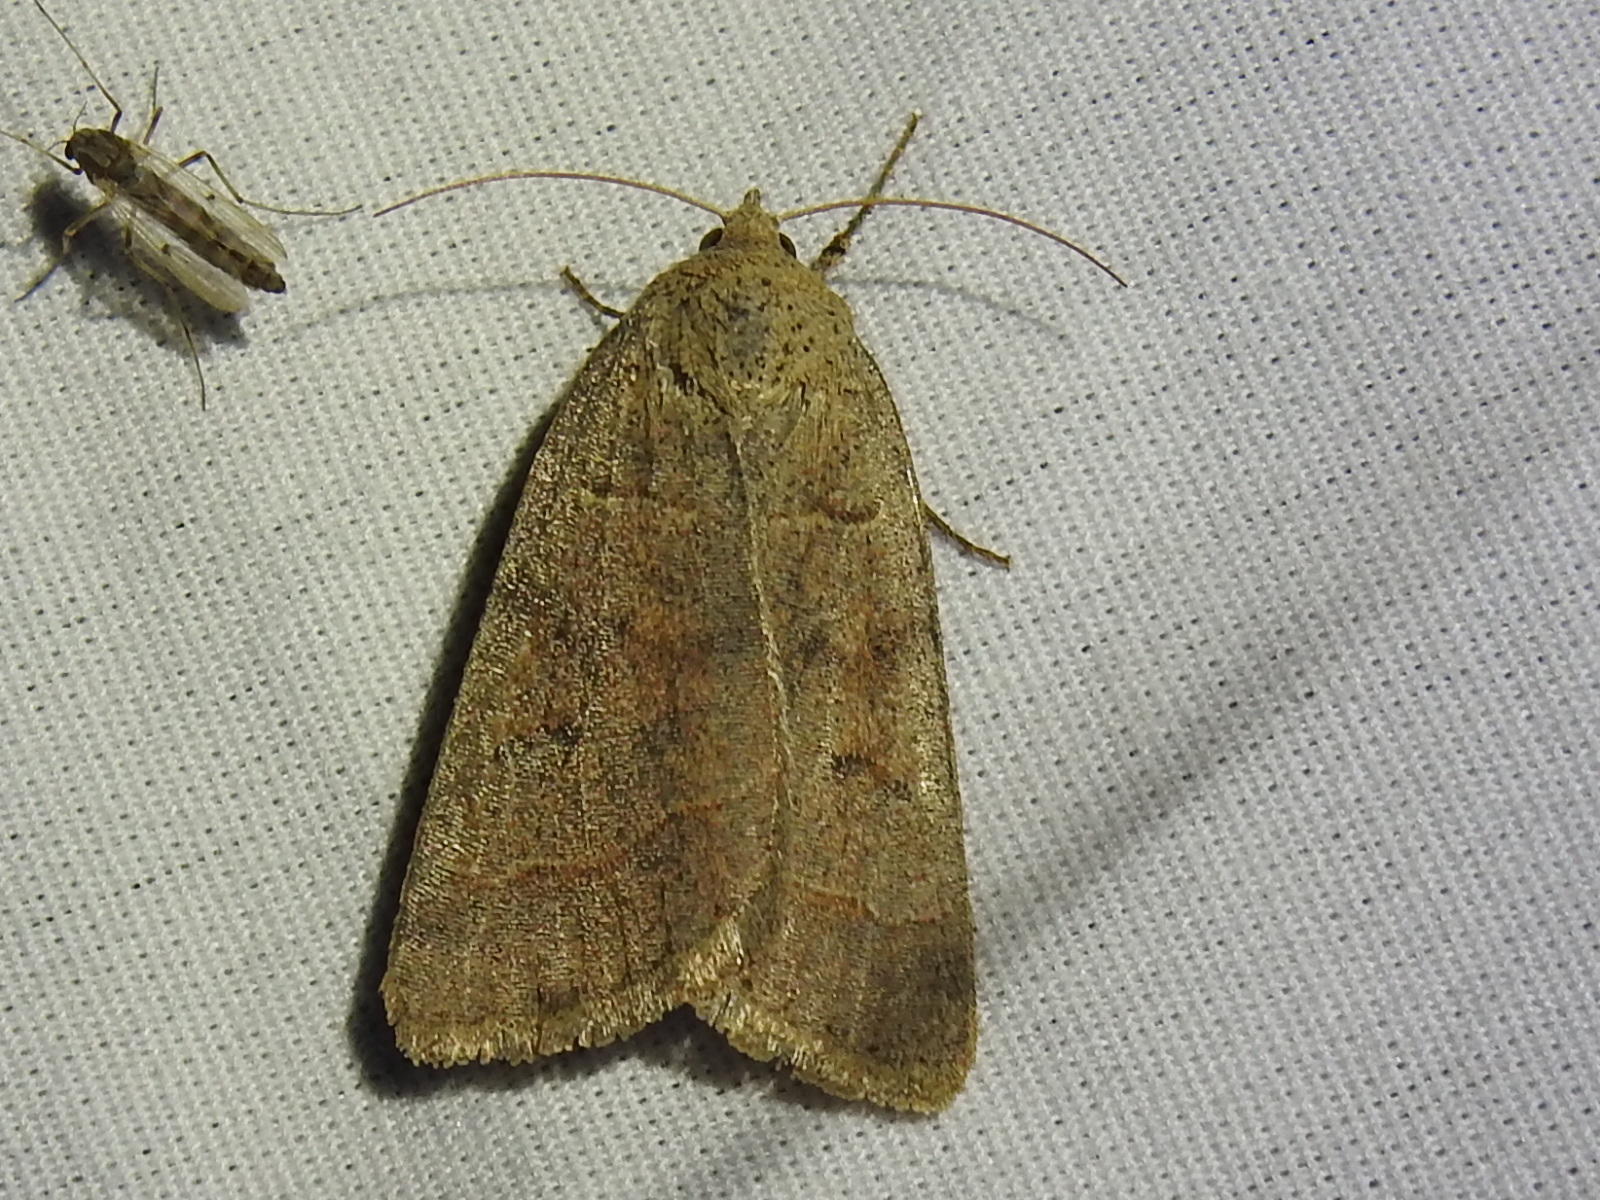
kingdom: Animalia
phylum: Arthropoda
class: Insecta
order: Lepidoptera
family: Erebidae
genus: Phoberia
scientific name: Phoberia atomaris
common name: Common oak moth
